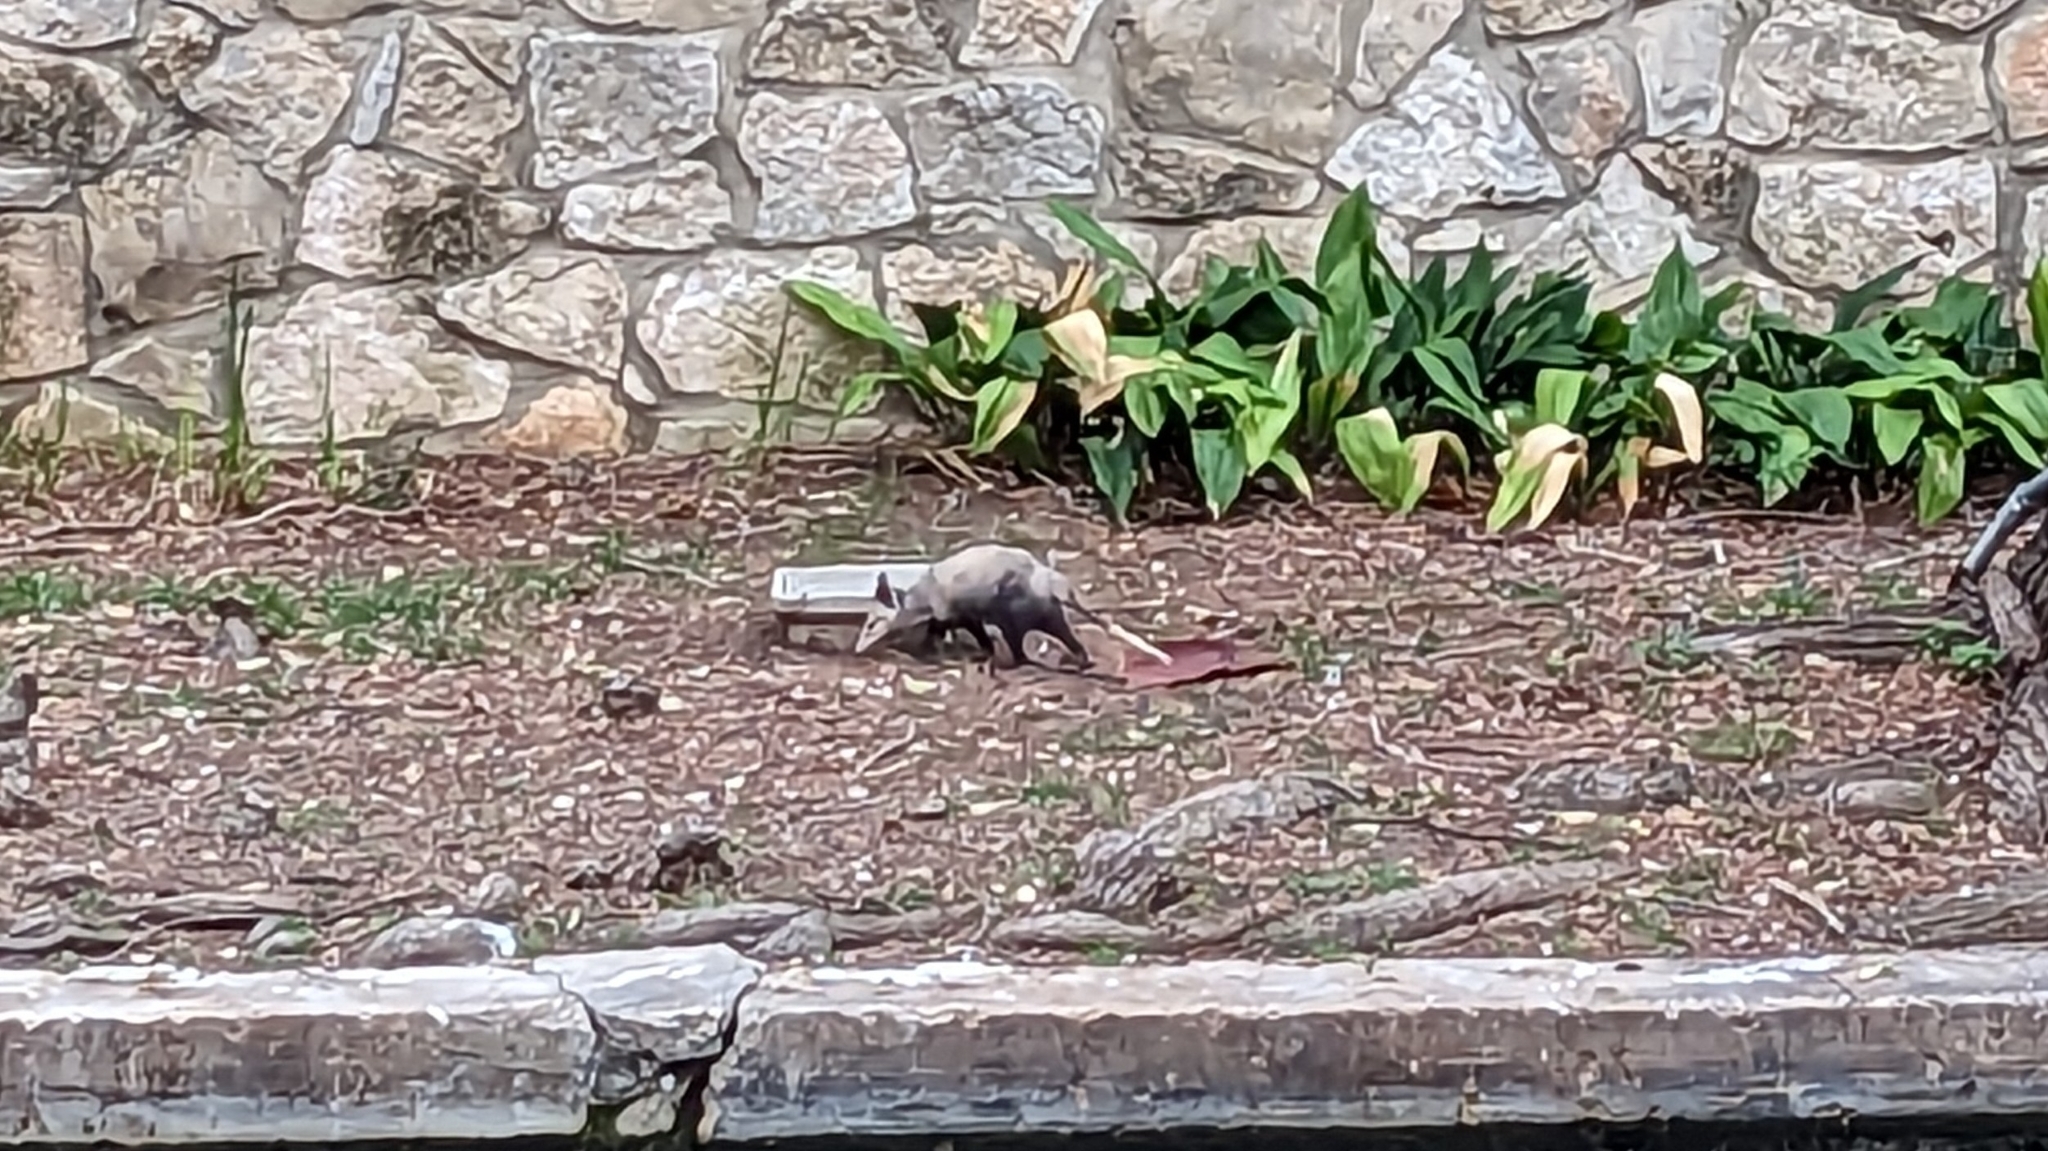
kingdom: Animalia
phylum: Chordata
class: Mammalia
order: Didelphimorphia
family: Didelphidae
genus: Didelphis
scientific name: Didelphis virginiana
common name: Virginia opossum
